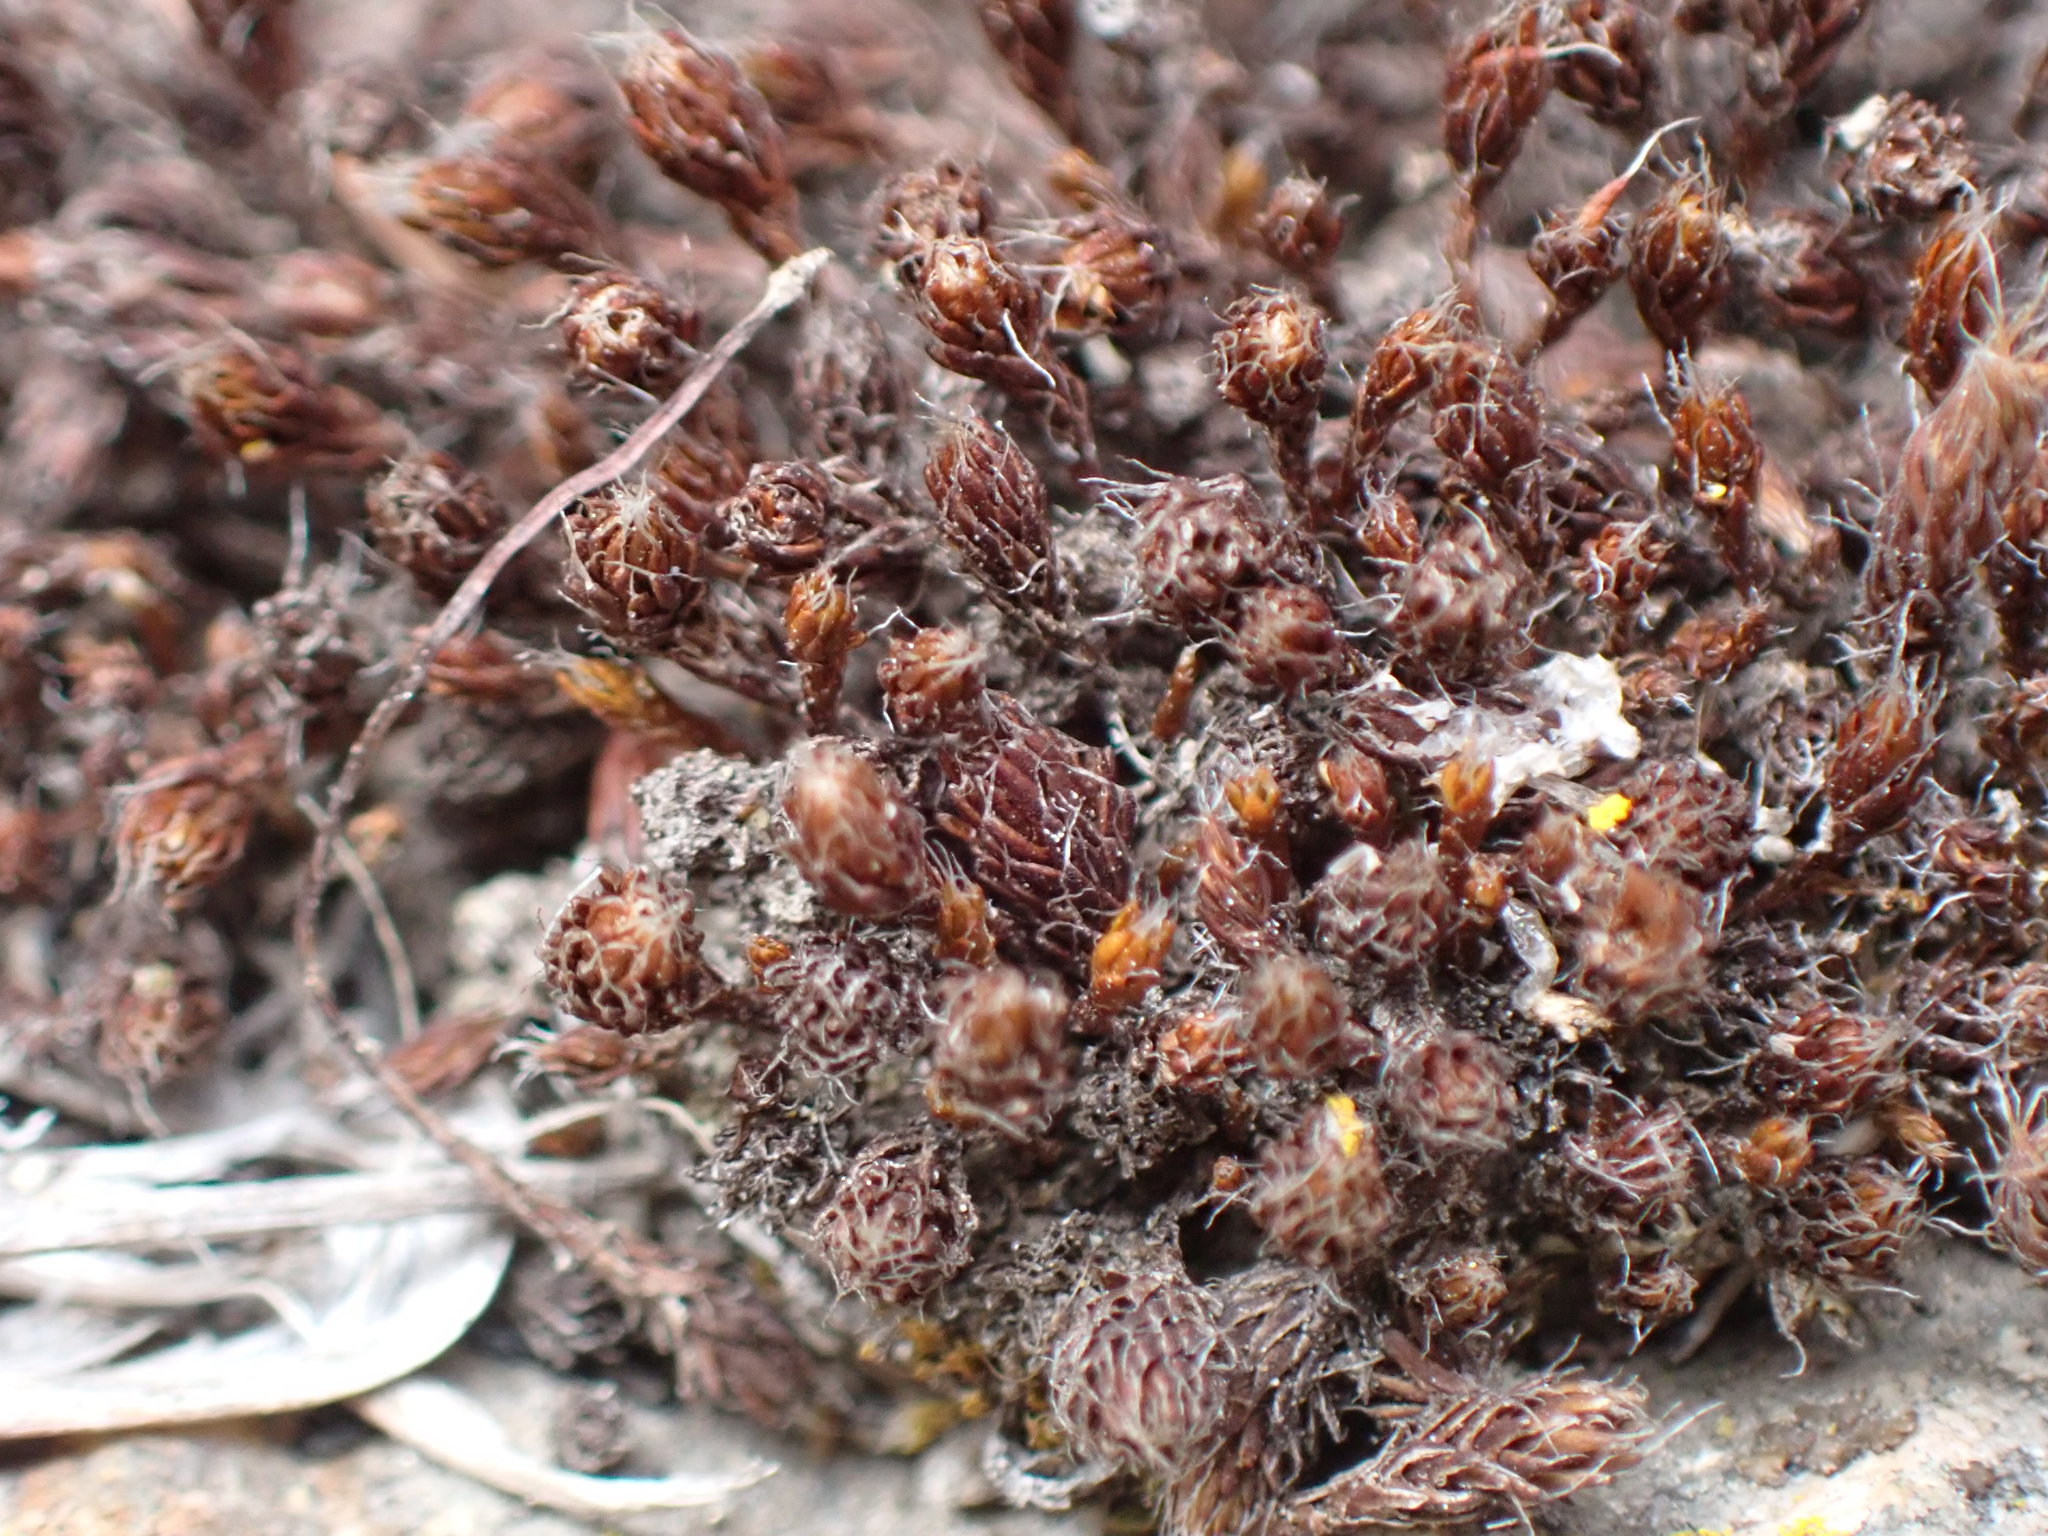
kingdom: Plantae
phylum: Bryophyta
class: Polytrichopsida
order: Polytrichales
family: Polytrichaceae
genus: Polytrichum
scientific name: Polytrichum piliferum
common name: Bristly haircap
